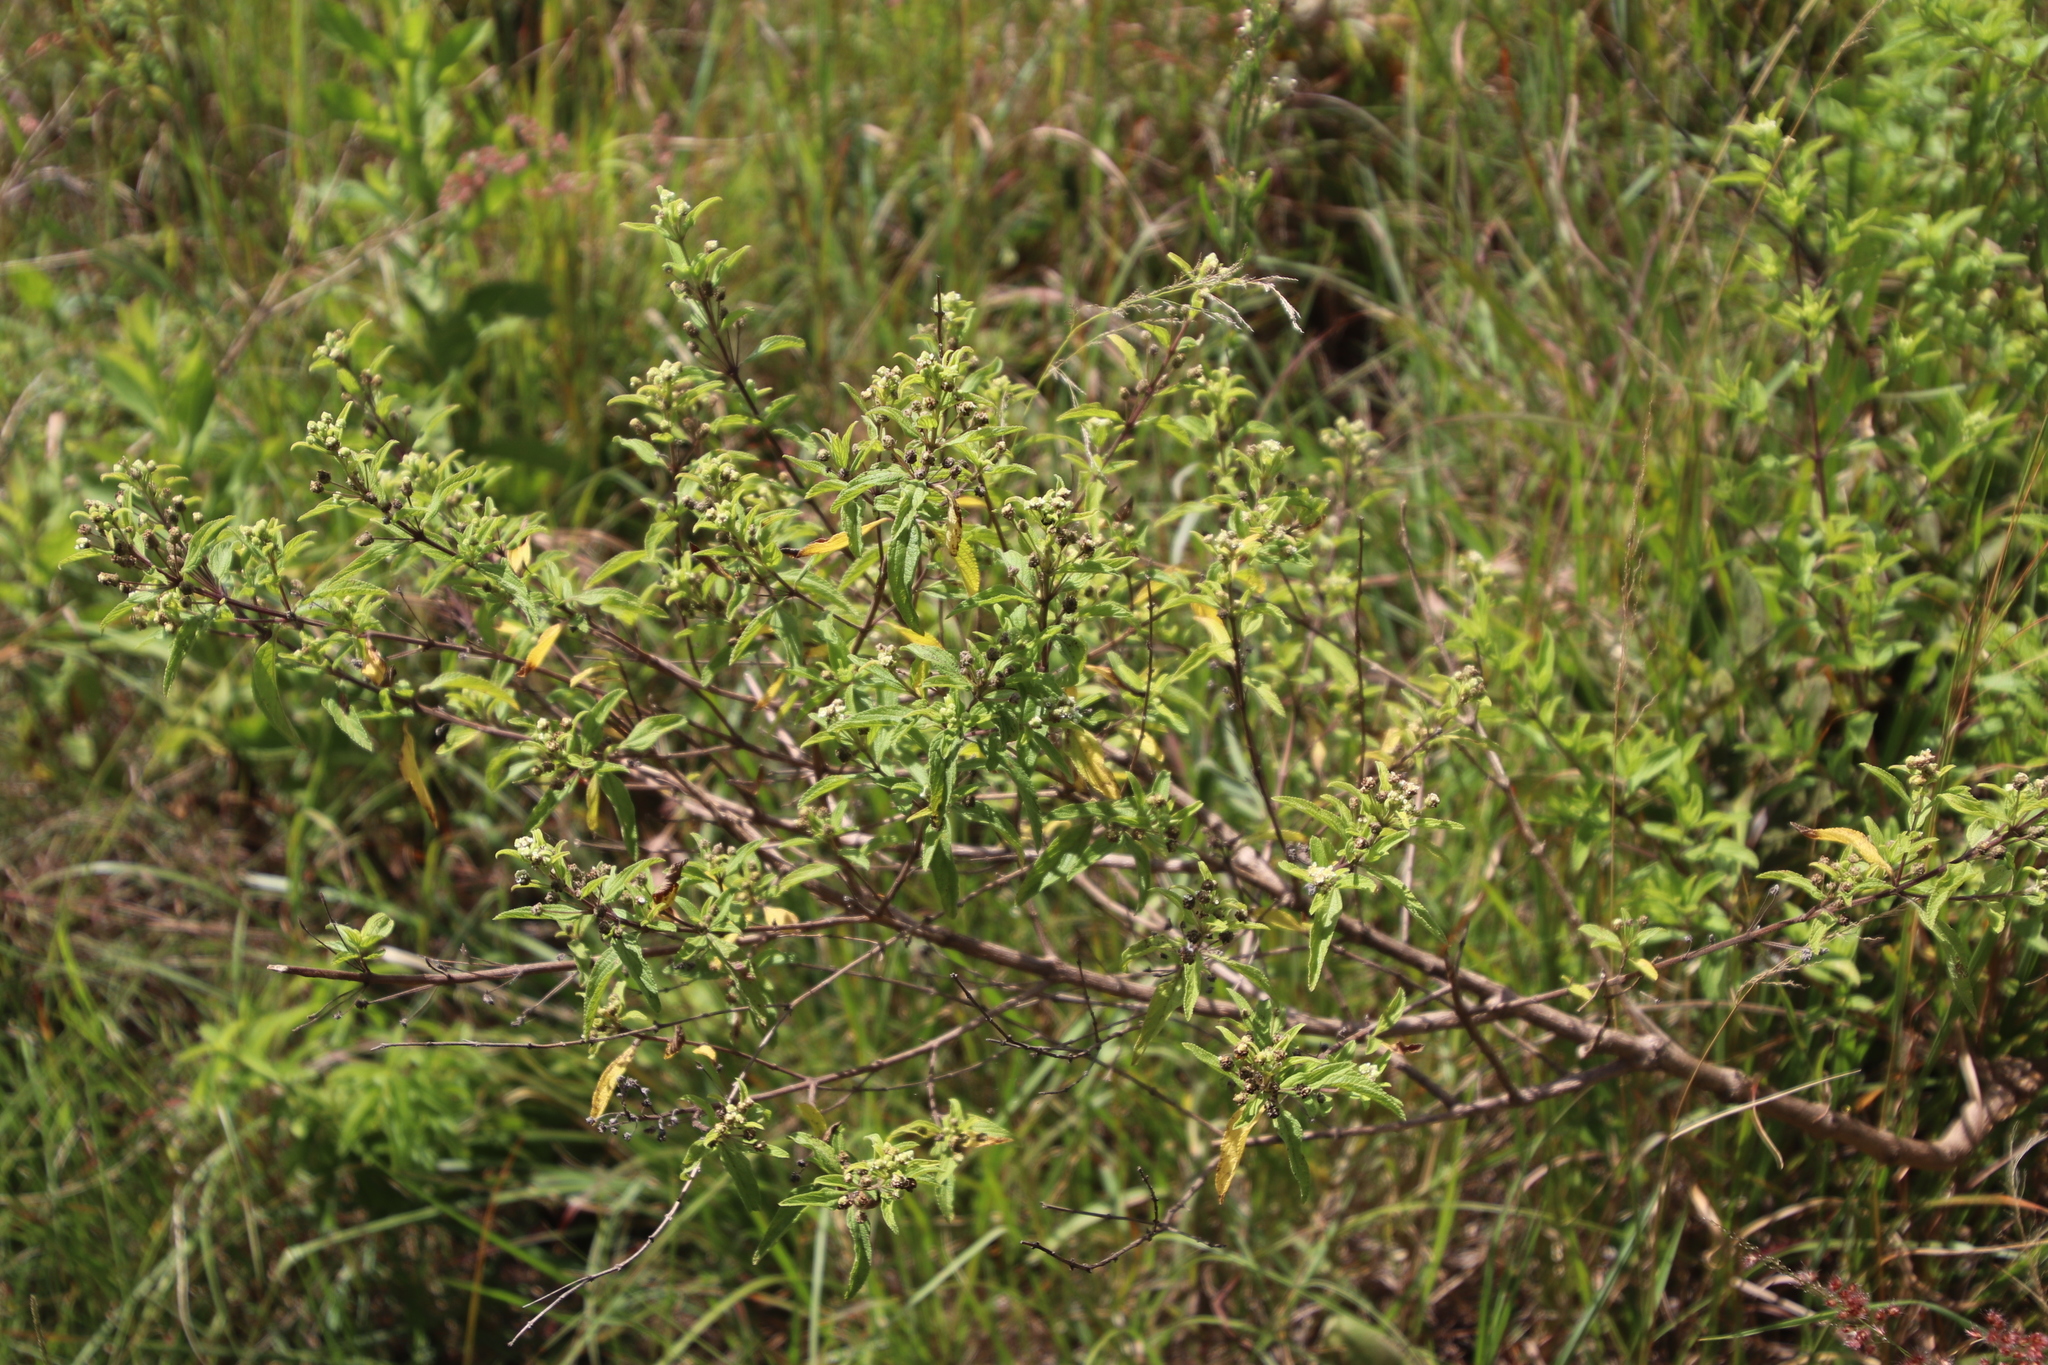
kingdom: Plantae
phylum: Tracheophyta
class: Magnoliopsida
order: Lamiales
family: Verbenaceae
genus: Lippia
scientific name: Lippia javanica
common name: Lemonbush
